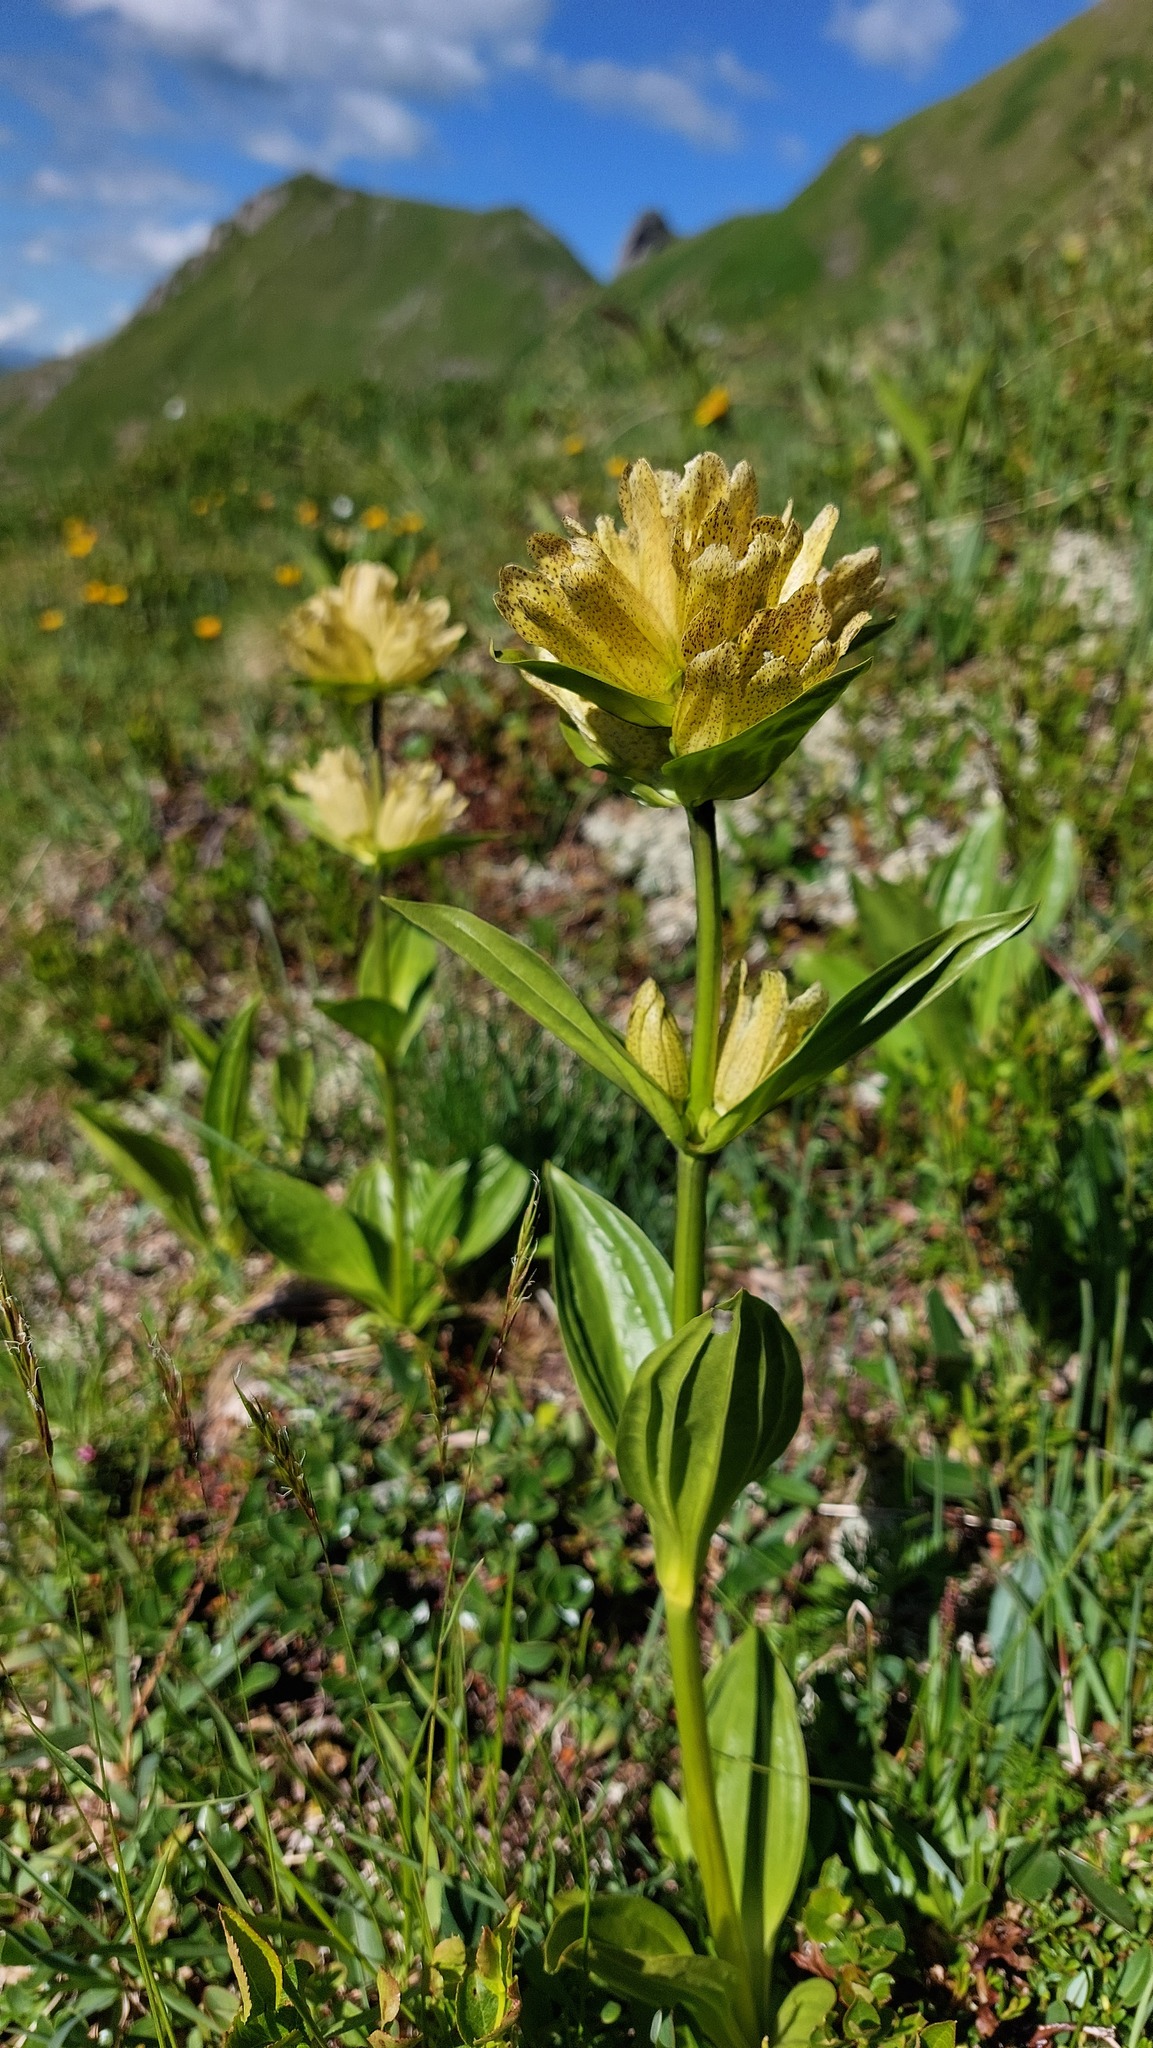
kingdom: Plantae
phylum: Tracheophyta
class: Magnoliopsida
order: Gentianales
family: Gentianaceae
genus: Gentiana
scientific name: Gentiana punctata
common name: Spotted gentian
